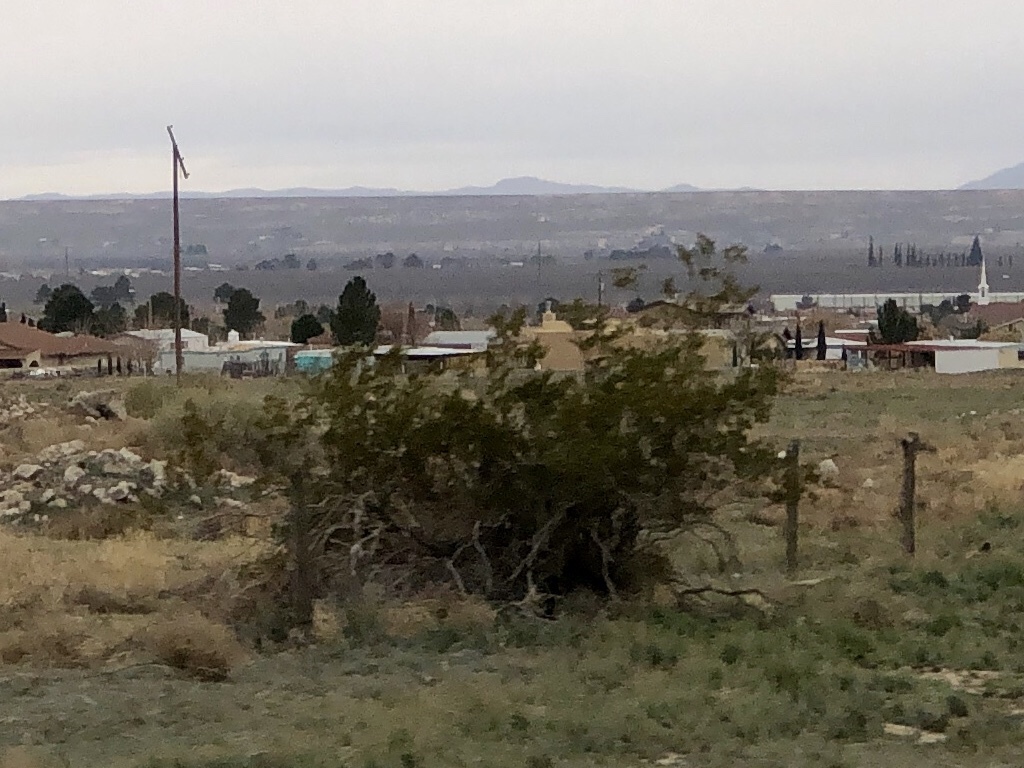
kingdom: Plantae
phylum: Tracheophyta
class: Magnoliopsida
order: Zygophyllales
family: Zygophyllaceae
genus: Larrea
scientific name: Larrea tridentata
